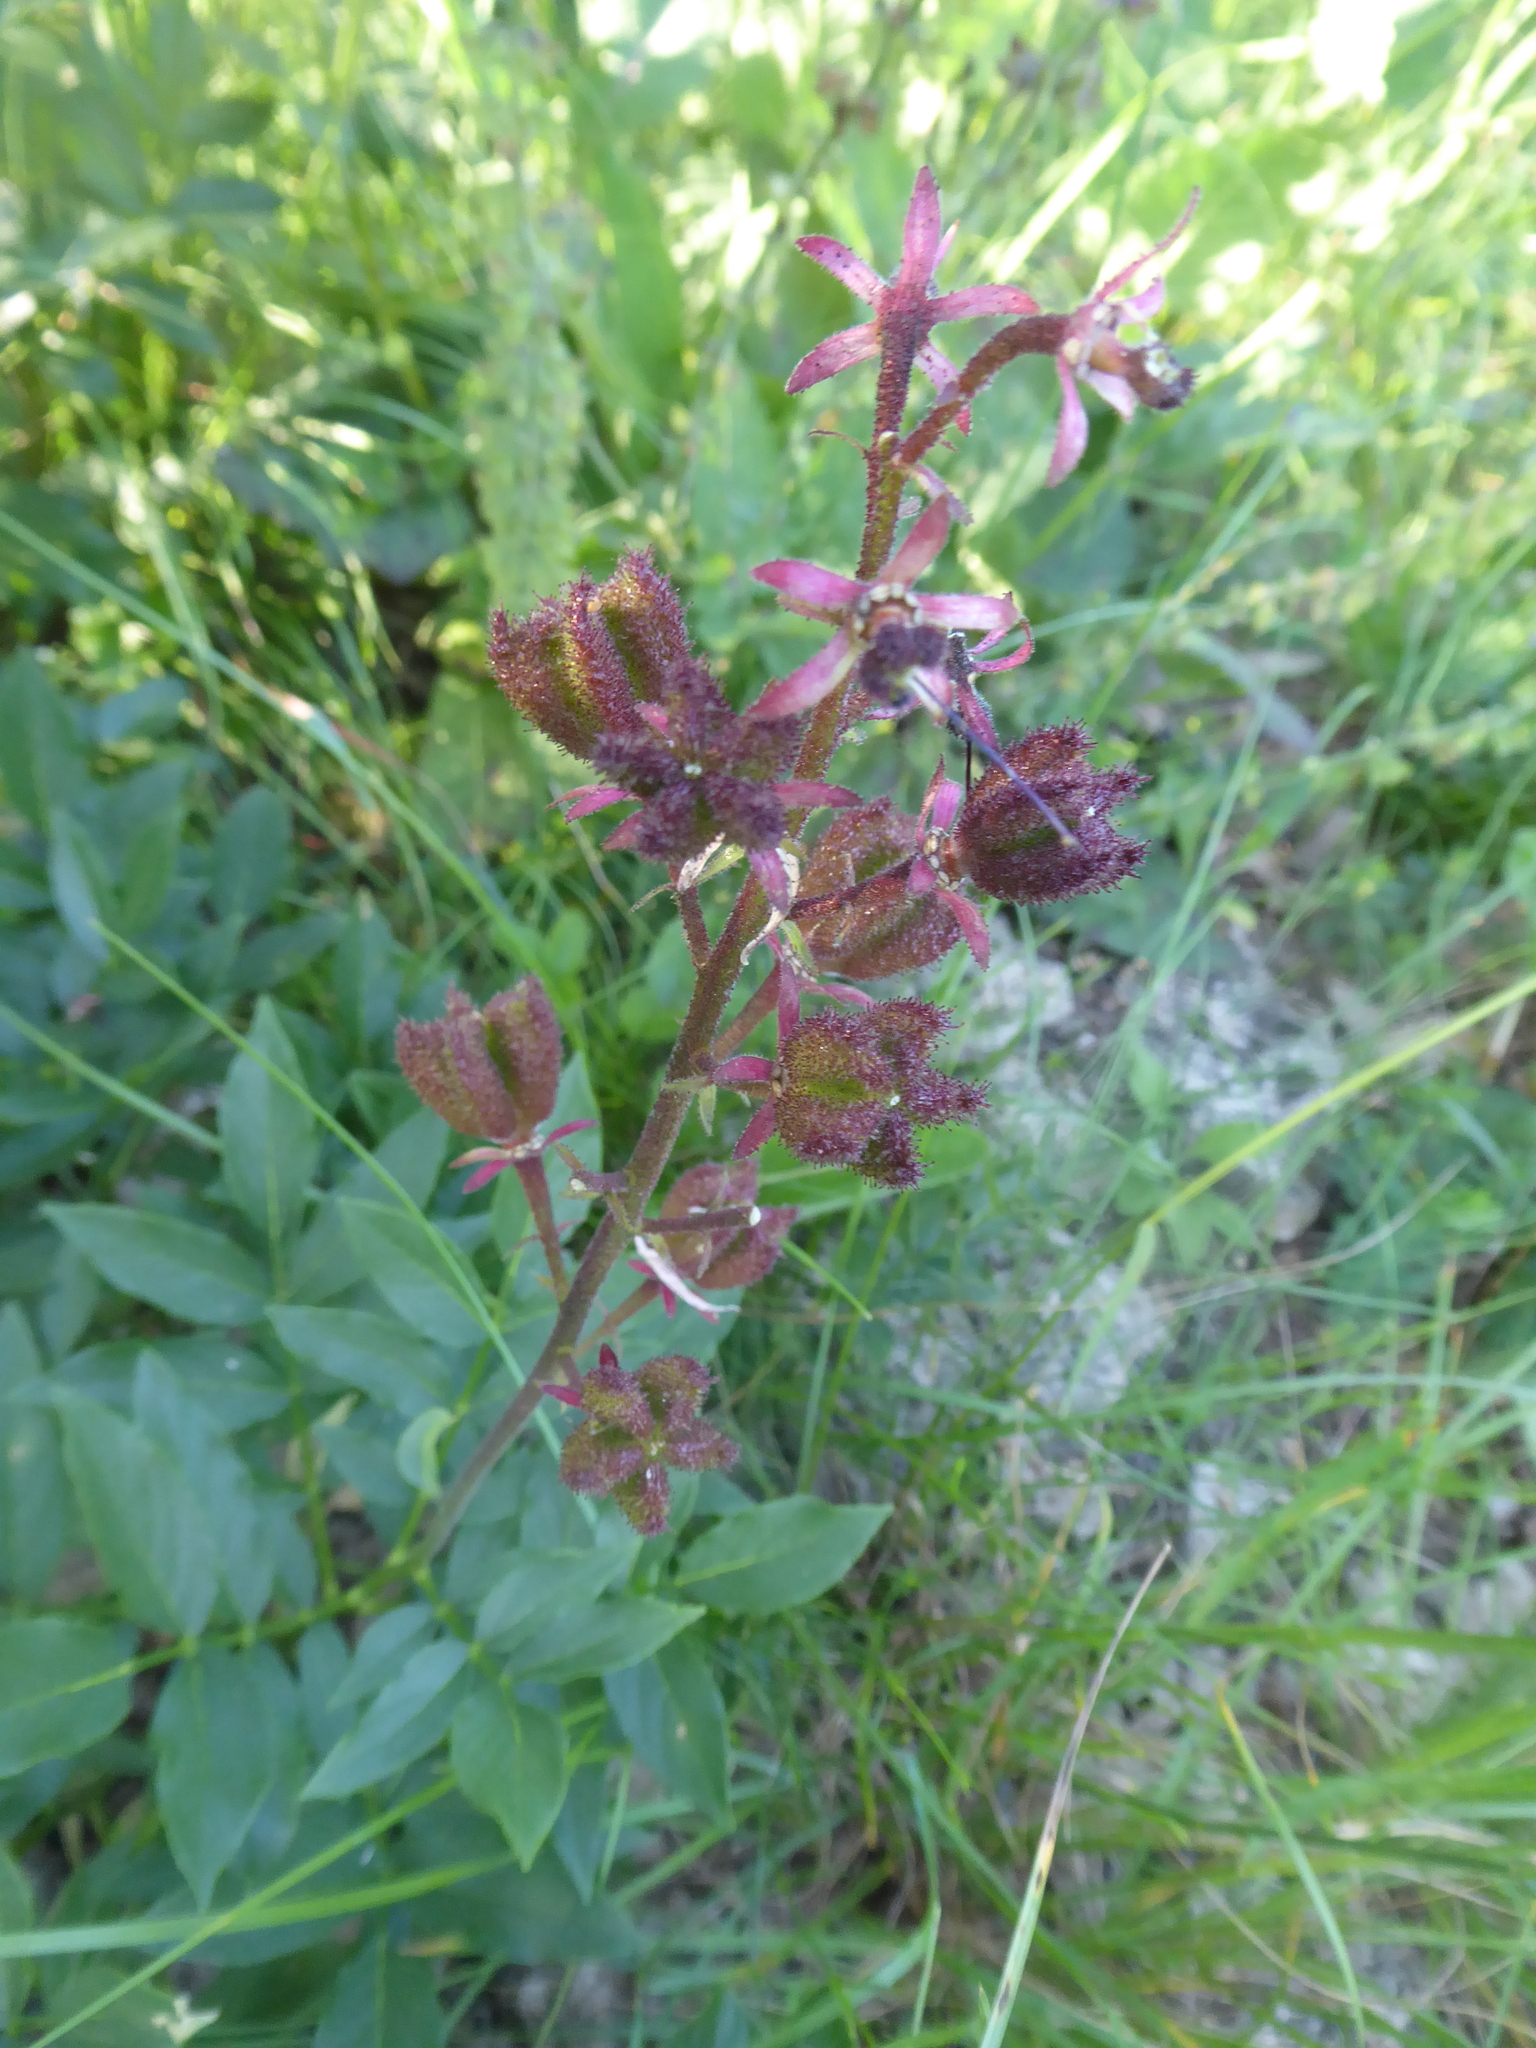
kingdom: Plantae
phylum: Tracheophyta
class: Magnoliopsida
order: Sapindales
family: Rutaceae
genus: Dictamnus
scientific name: Dictamnus albus
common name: Gasplant
